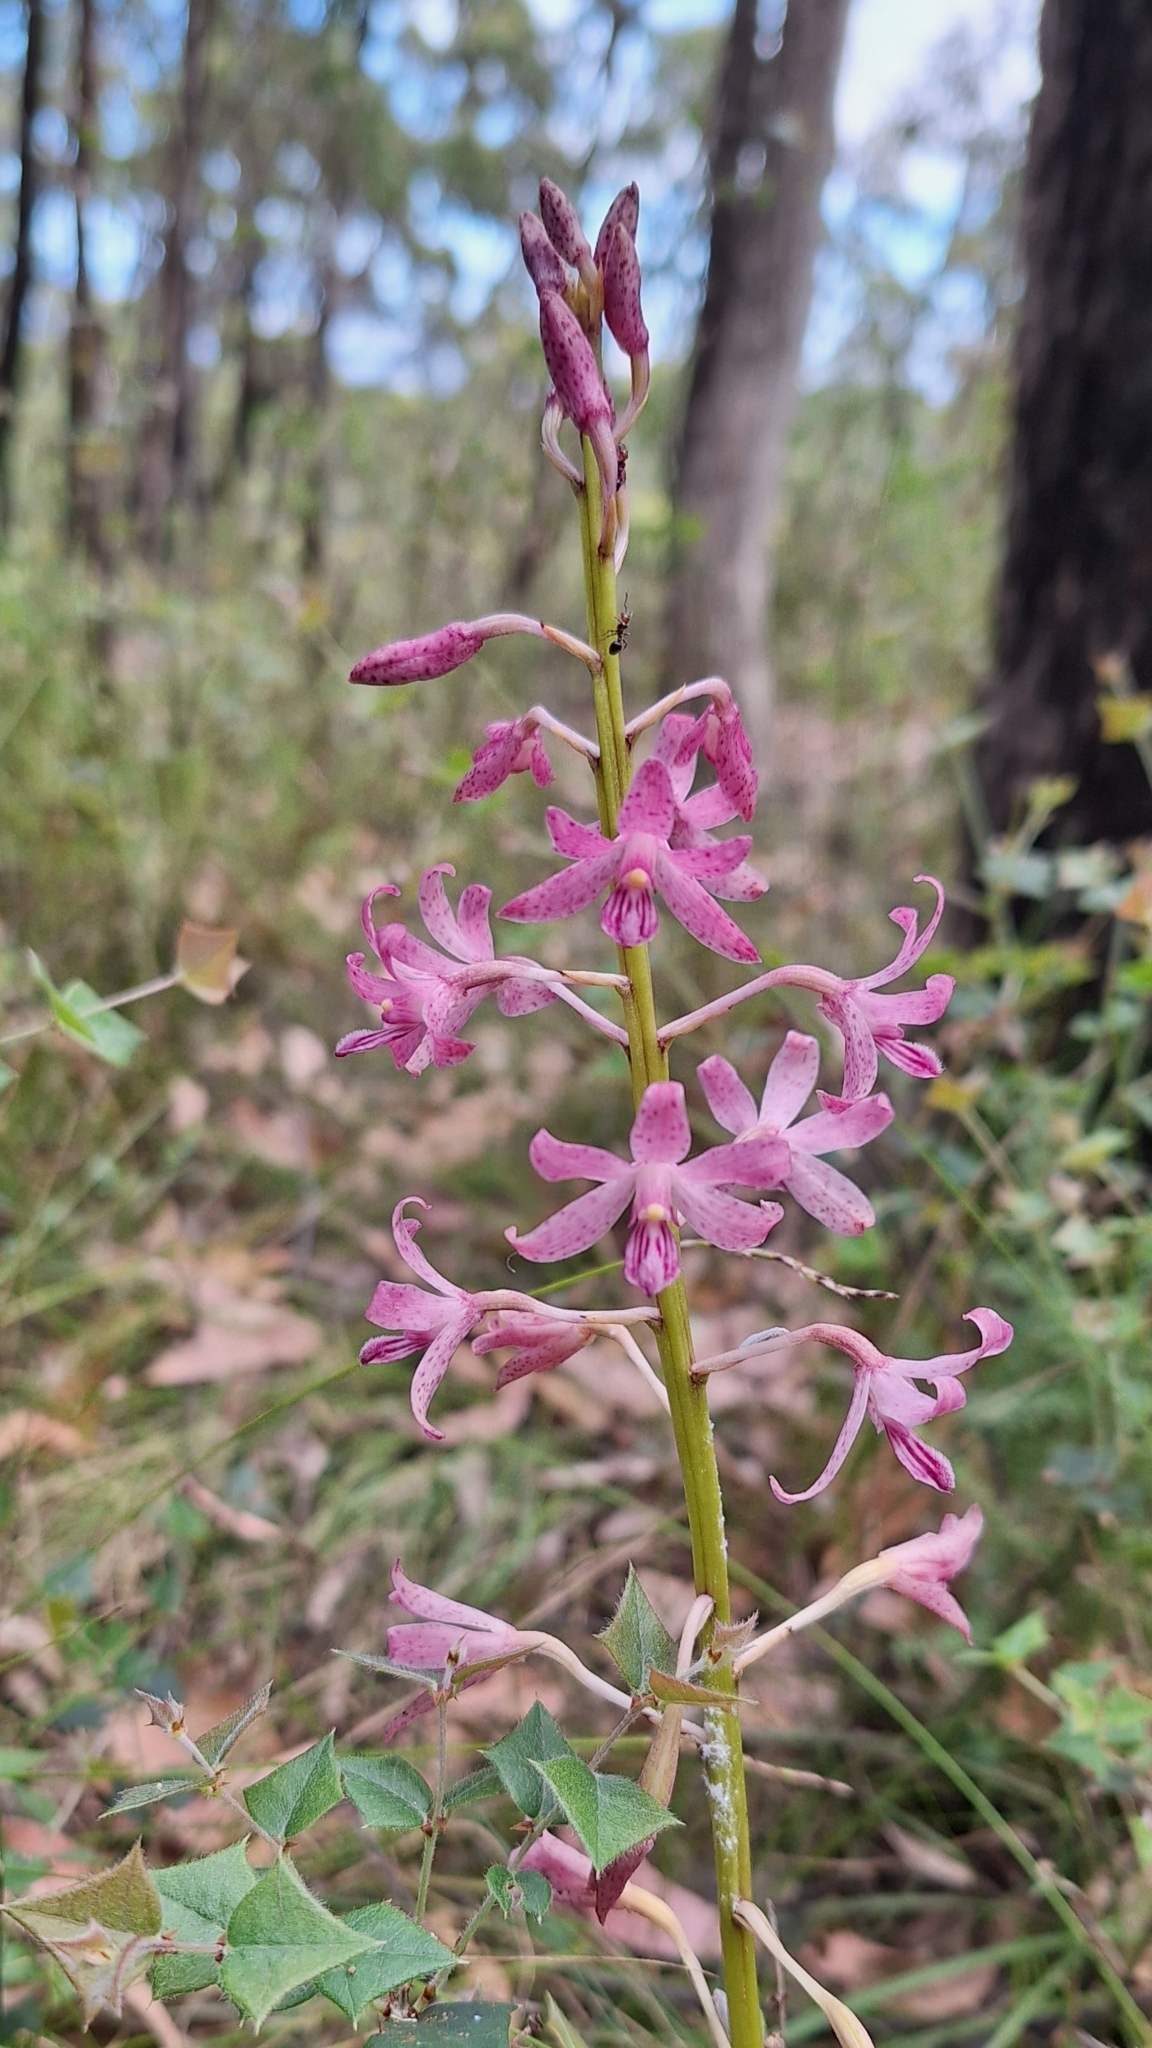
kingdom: Plantae
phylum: Tracheophyta
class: Liliopsida
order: Asparagales
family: Orchidaceae
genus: Dipodium
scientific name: Dipodium roseum
